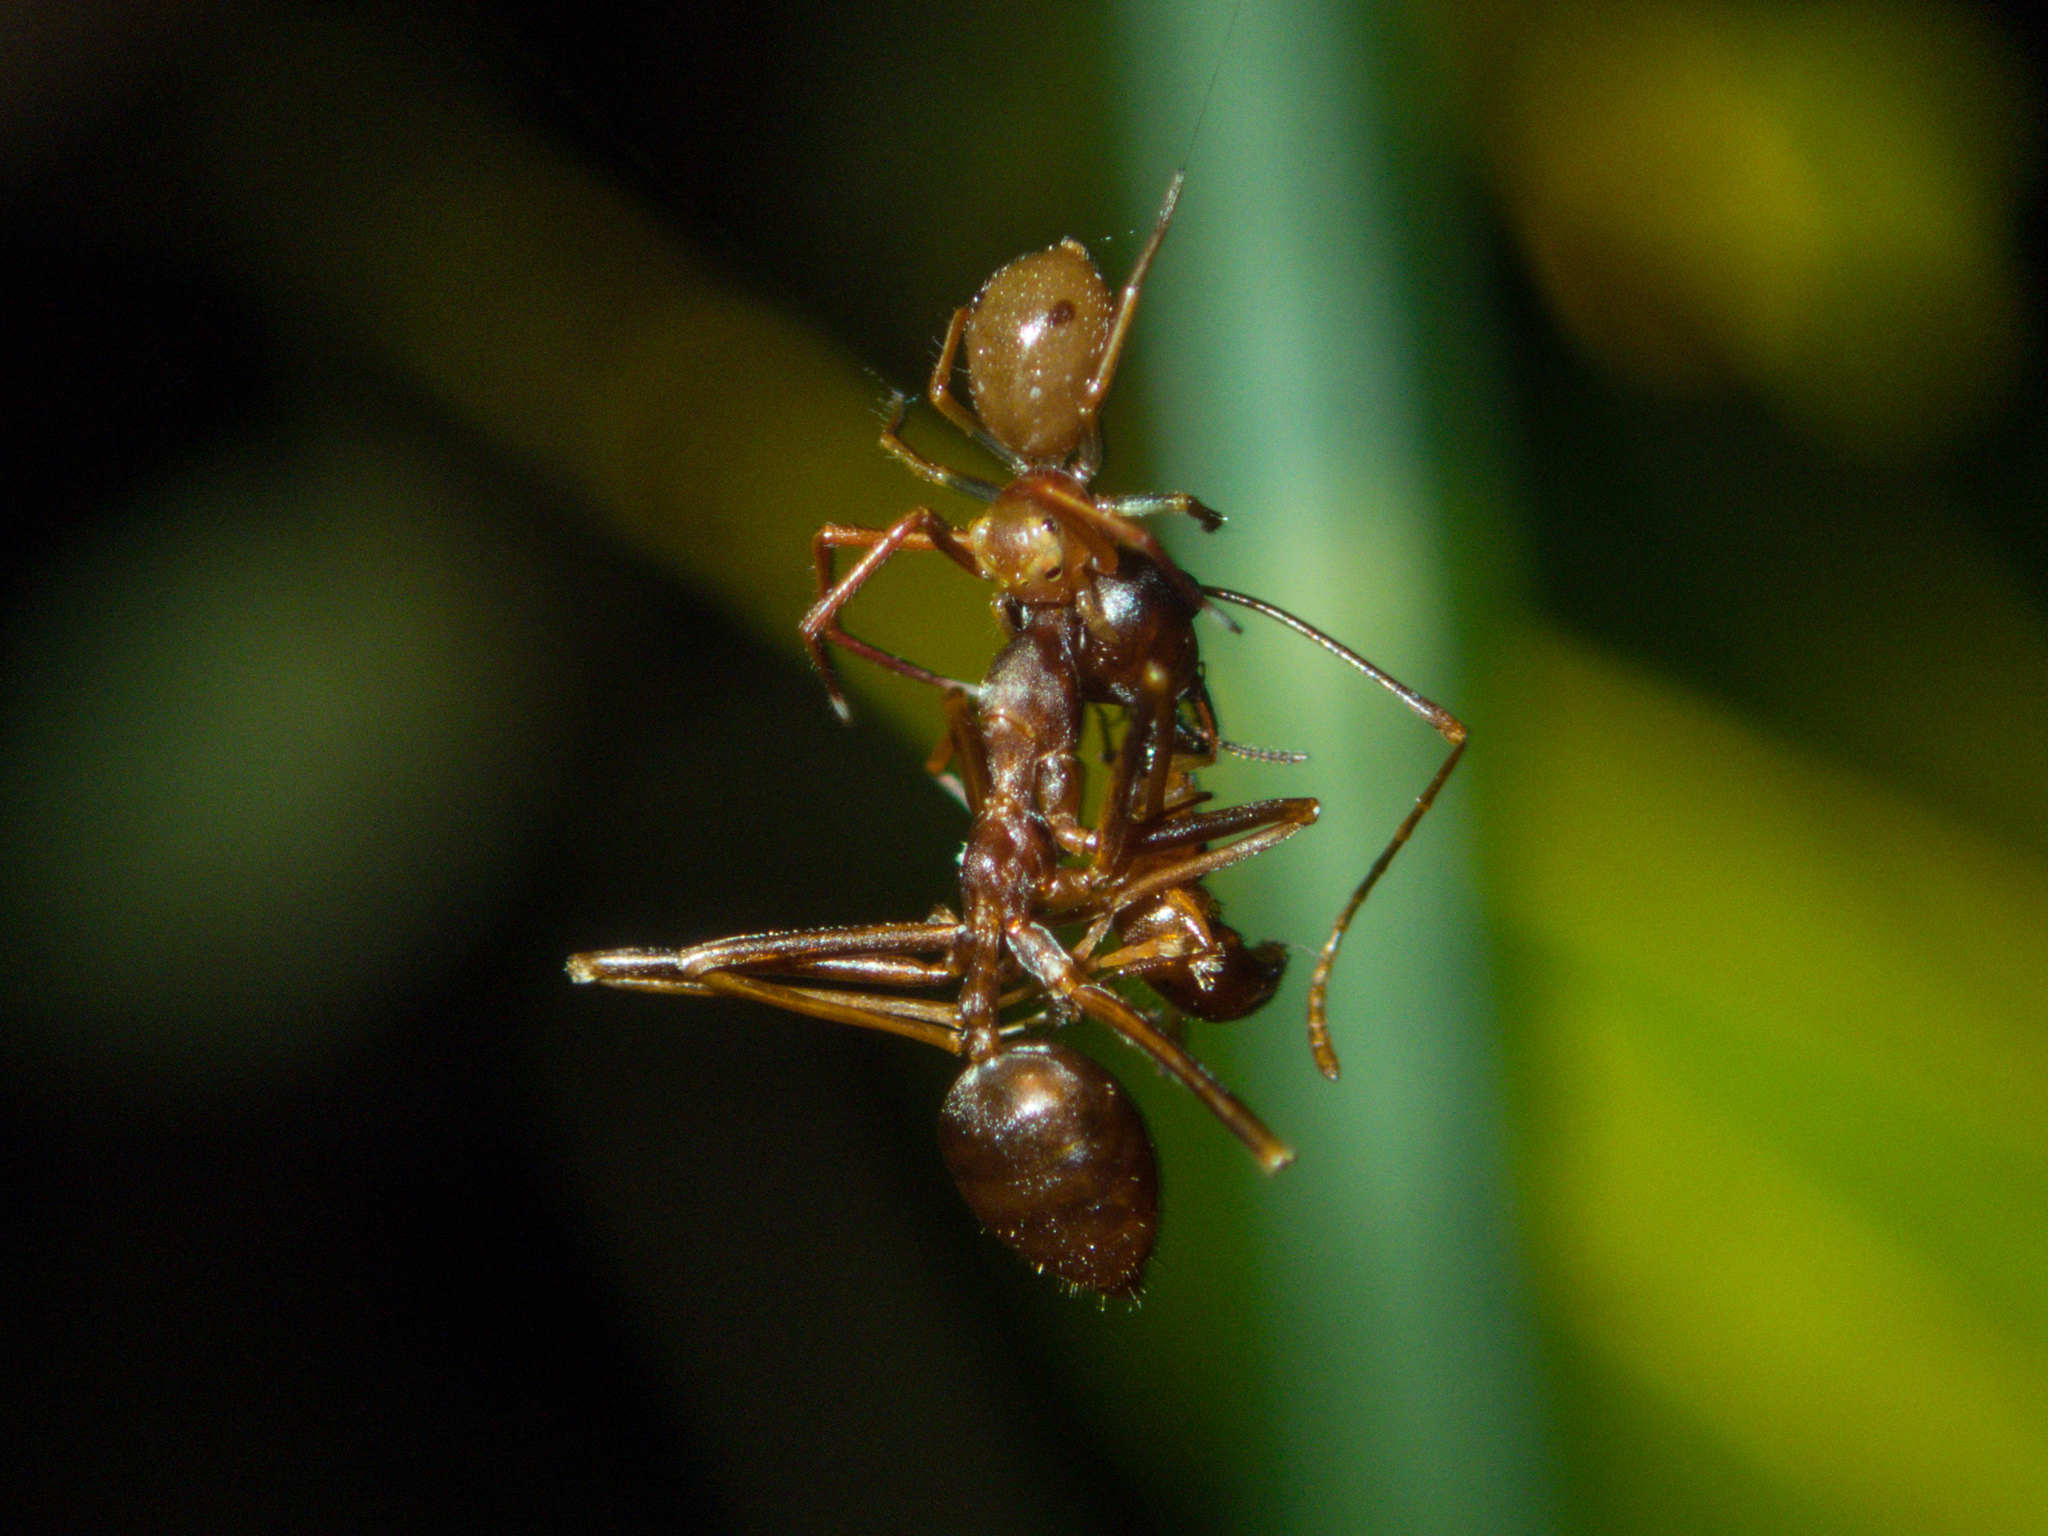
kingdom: Animalia
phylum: Arthropoda
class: Insecta
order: Hymenoptera
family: Formicidae
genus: Oecophylla
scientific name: Oecophylla smaragdina
